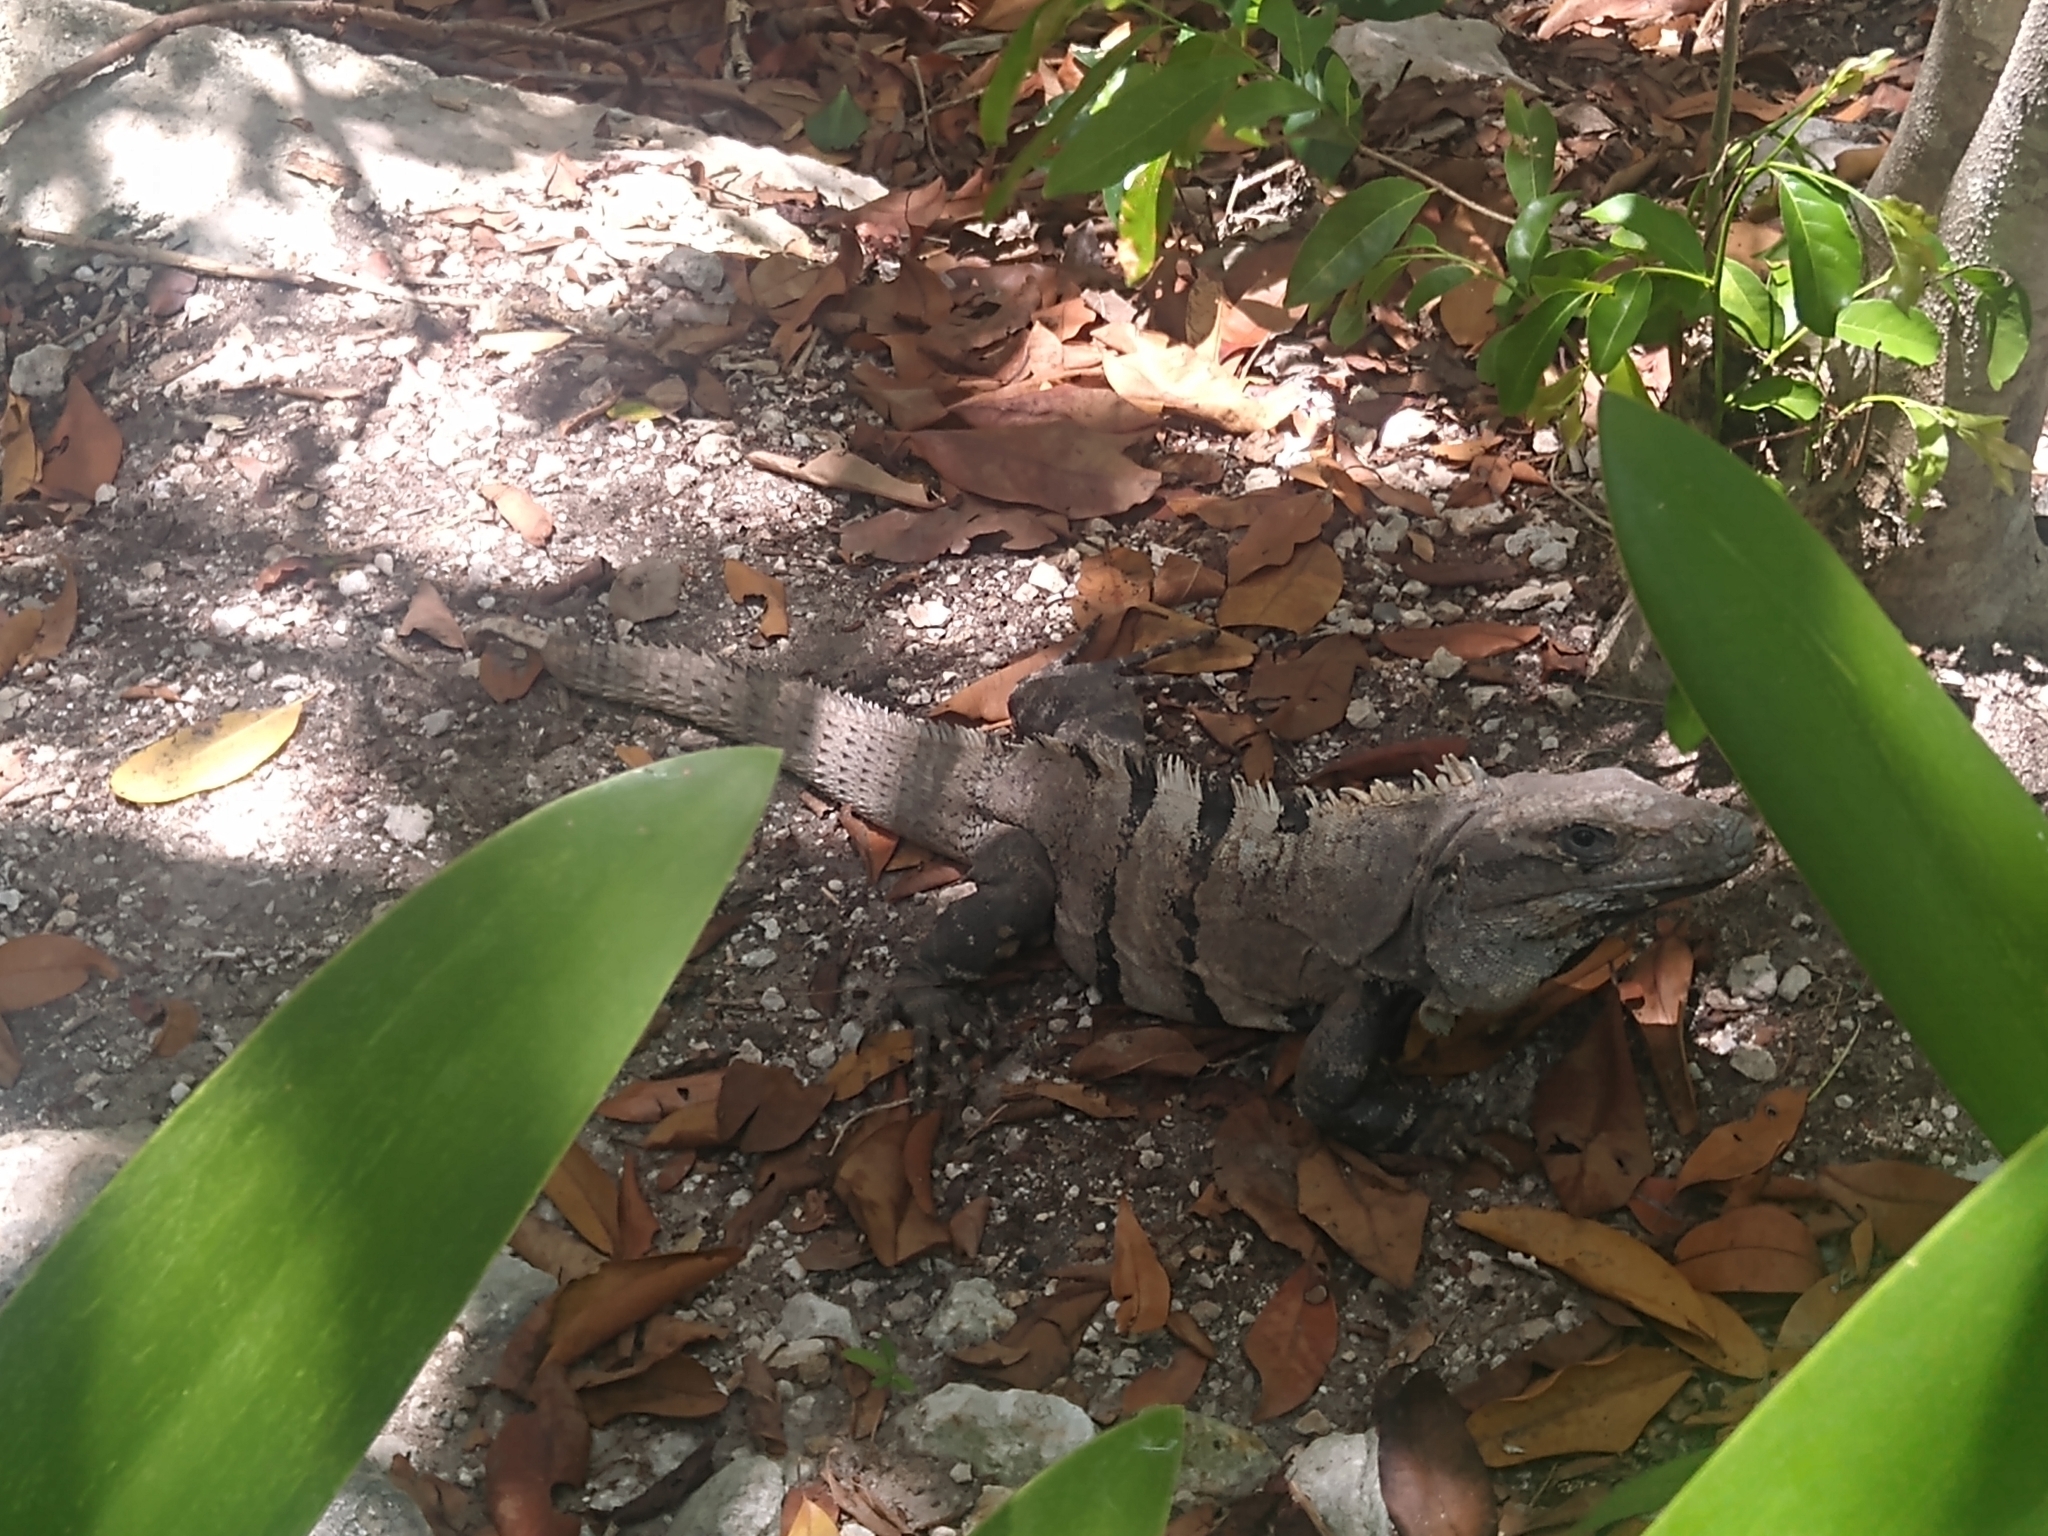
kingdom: Animalia
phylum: Chordata
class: Squamata
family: Iguanidae
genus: Ctenosaura
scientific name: Ctenosaura similis
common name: Black spiny-tailed iguana
